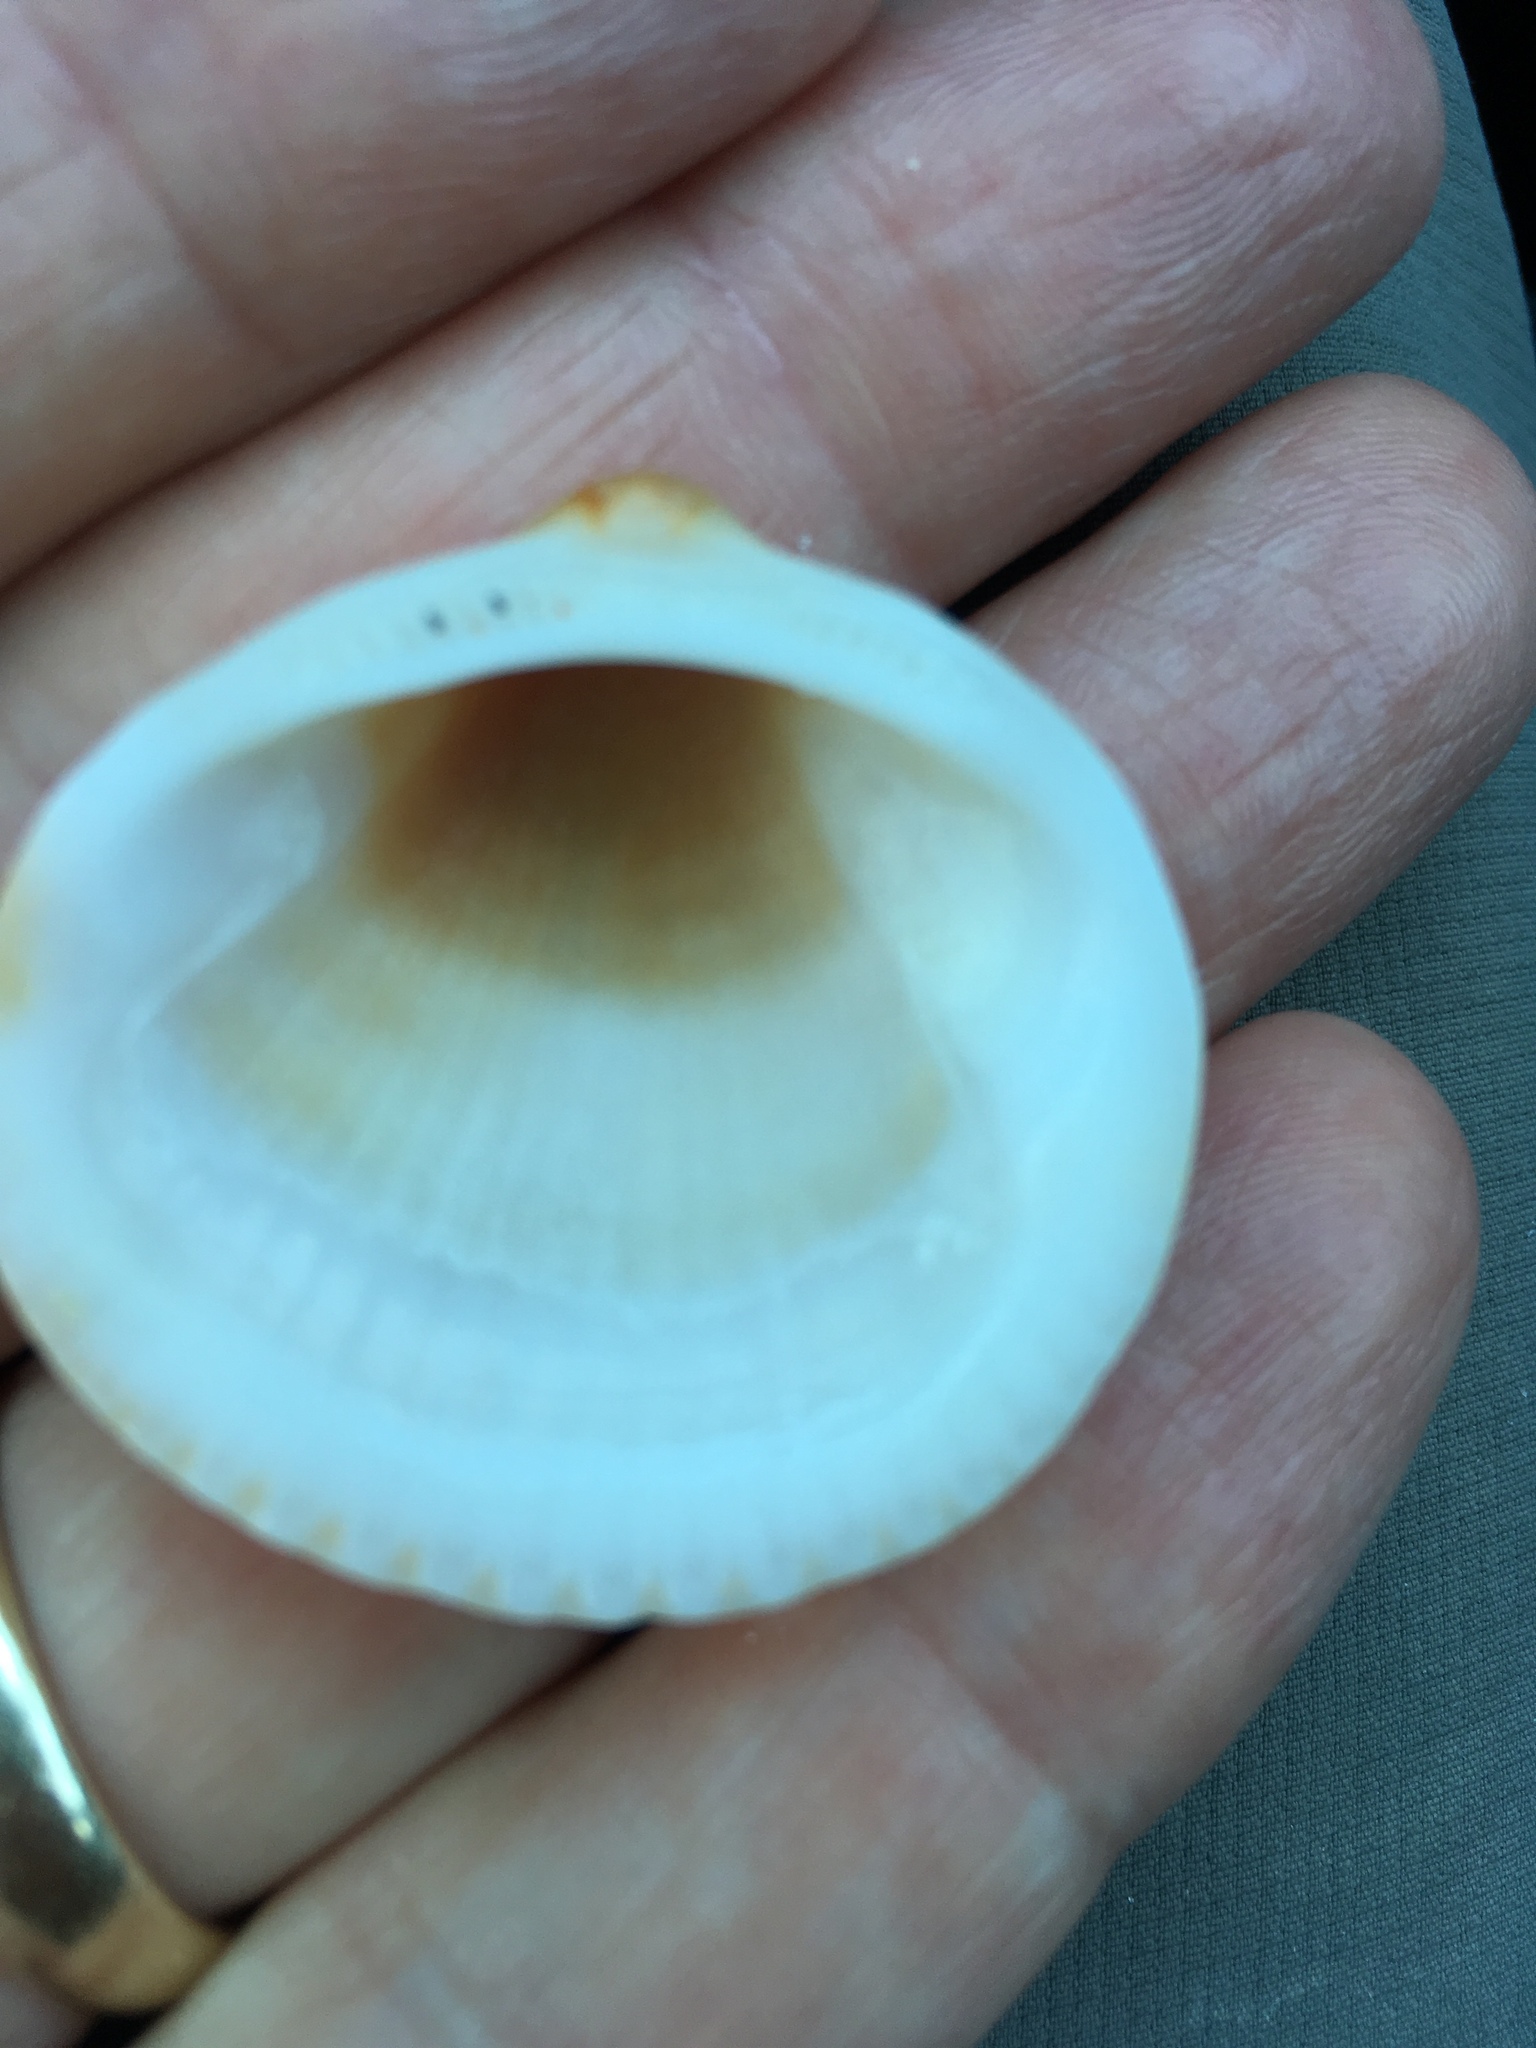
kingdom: Animalia
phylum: Mollusca
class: Bivalvia
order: Arcida
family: Glycymerididae
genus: Glycymeris
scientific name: Glycymeris spectralis
